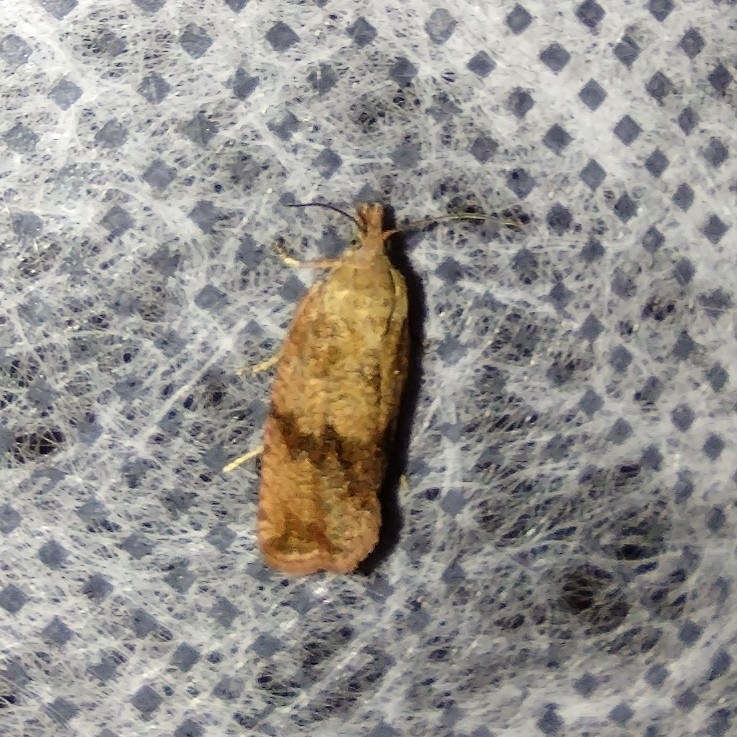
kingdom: Animalia
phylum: Arthropoda
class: Insecta
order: Lepidoptera
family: Tortricidae
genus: Celypha
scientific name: Celypha striana
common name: Barred marble
